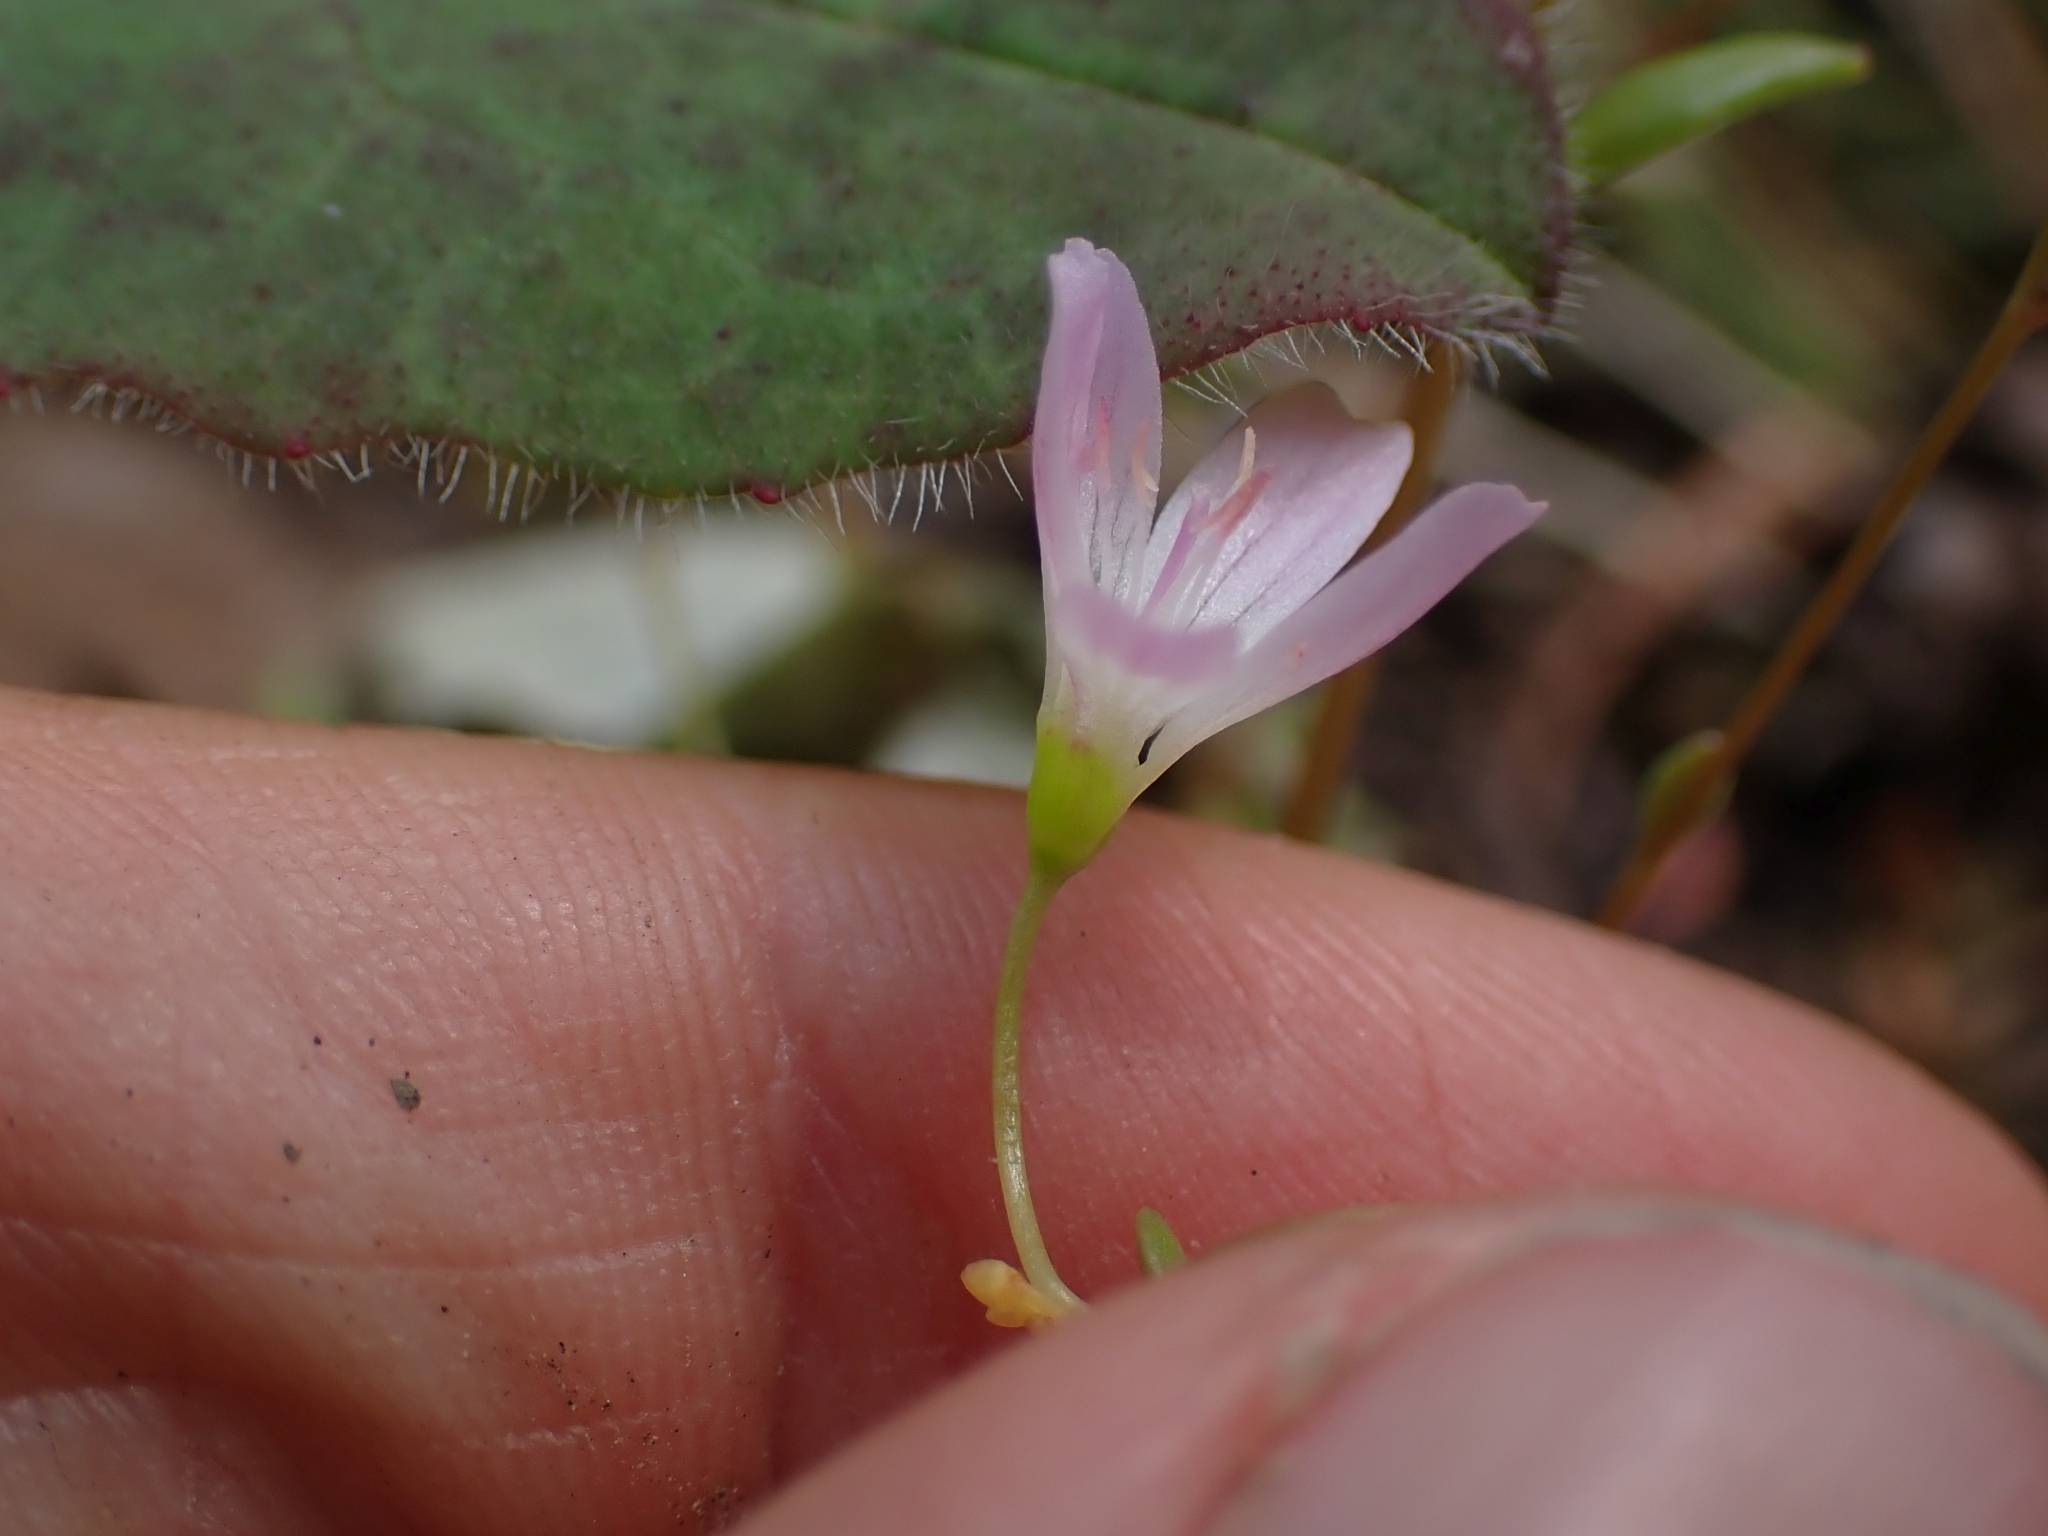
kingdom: Plantae
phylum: Tracheophyta
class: Magnoliopsida
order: Caryophyllales
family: Montiaceae
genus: Montia
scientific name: Montia parvifolia
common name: Small-leaved blinks
